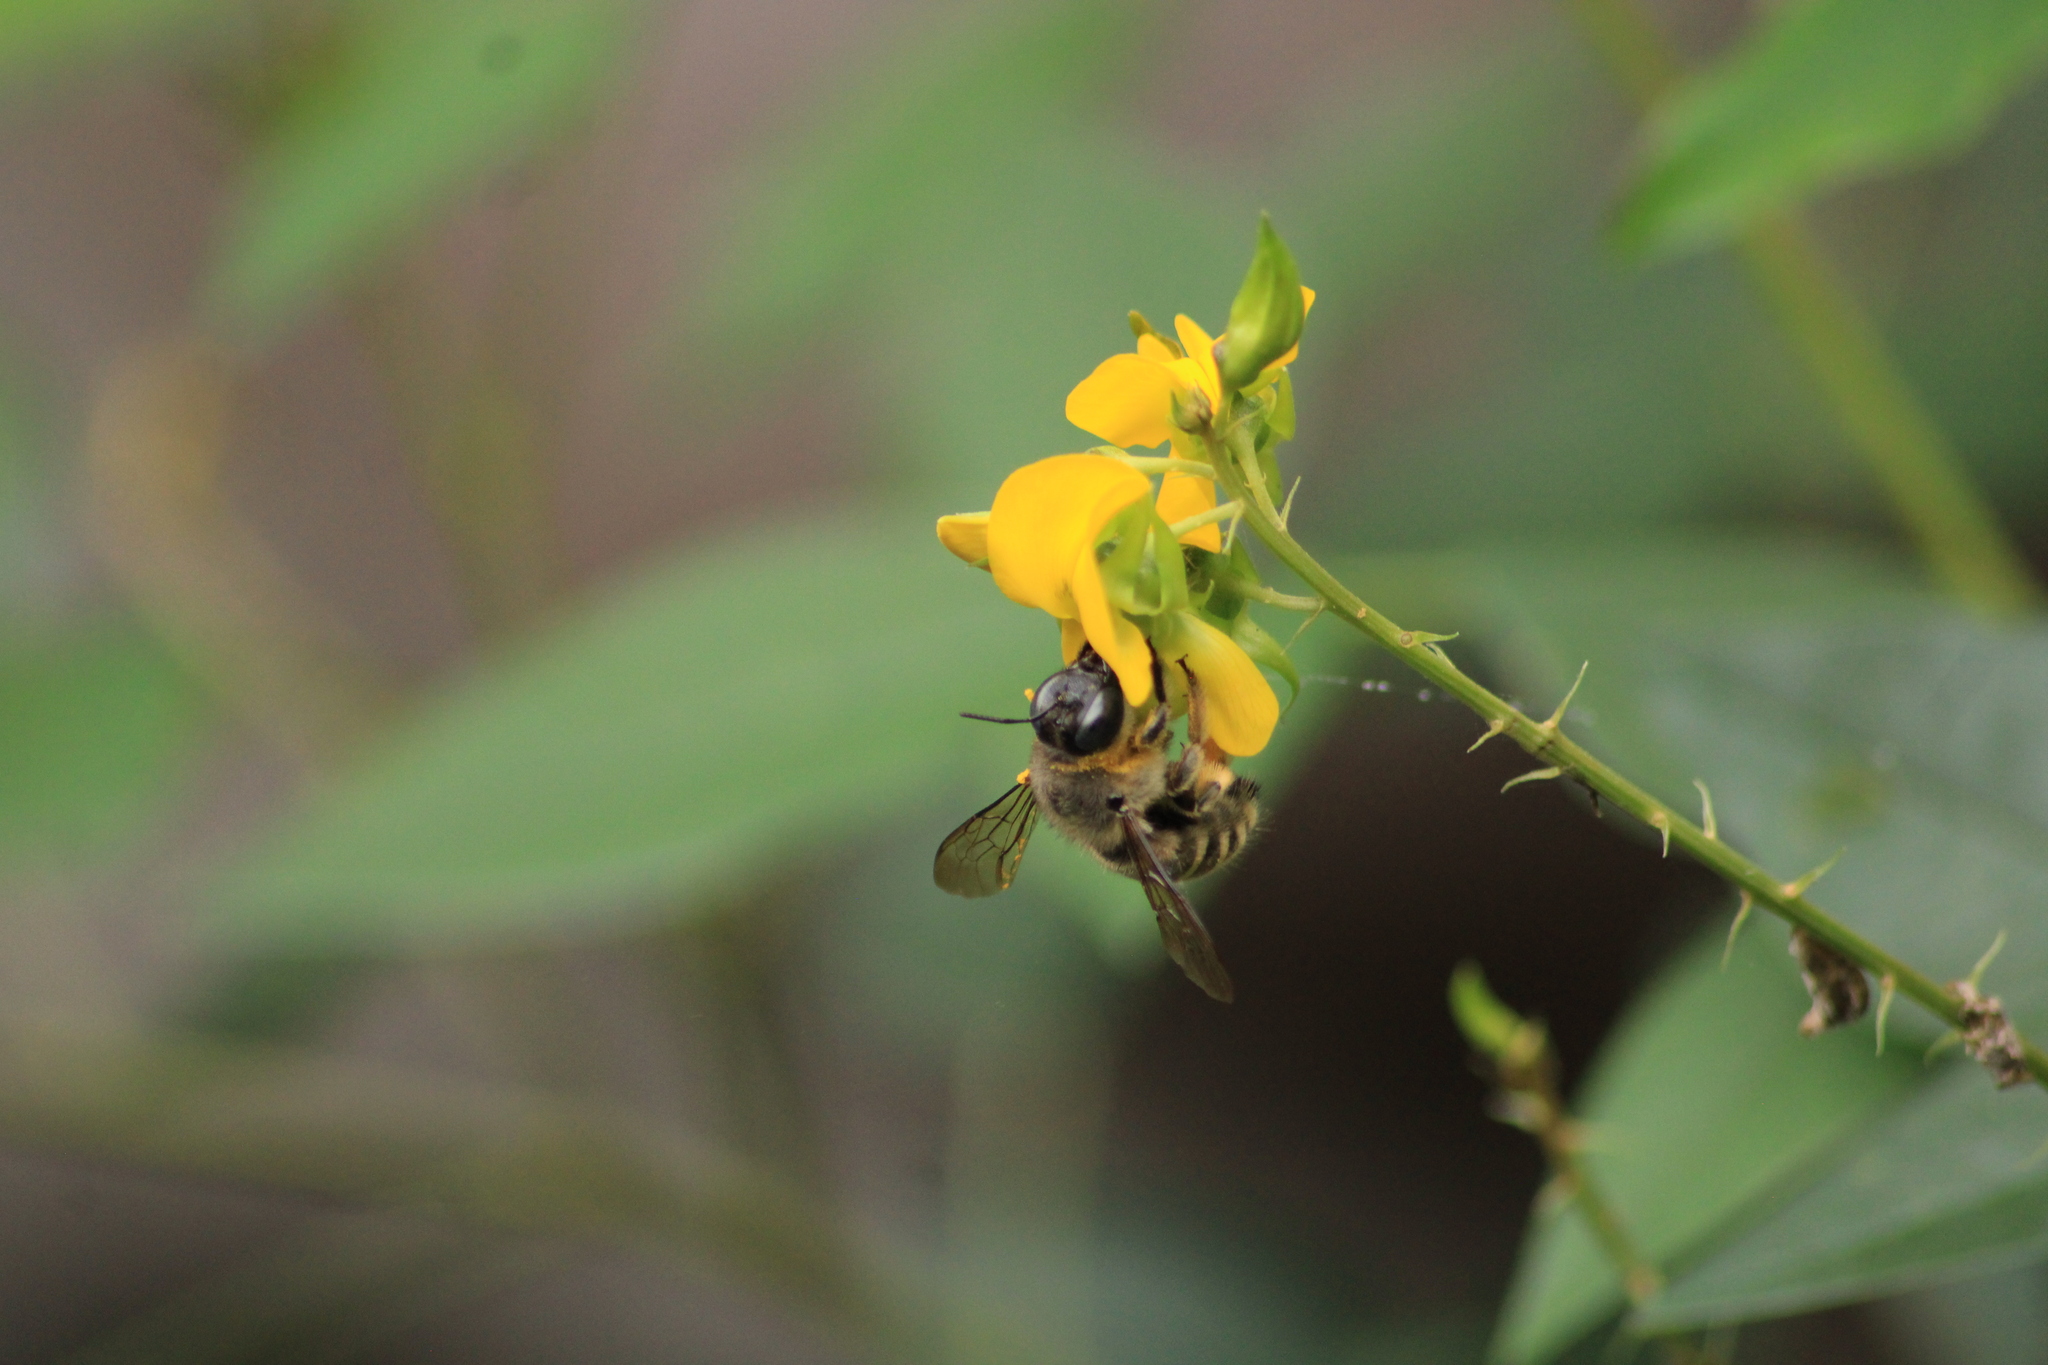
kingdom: Animalia
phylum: Arthropoda
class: Insecta
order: Hymenoptera
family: Apidae
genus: Xylocopa
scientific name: Xylocopa tabaniformis
